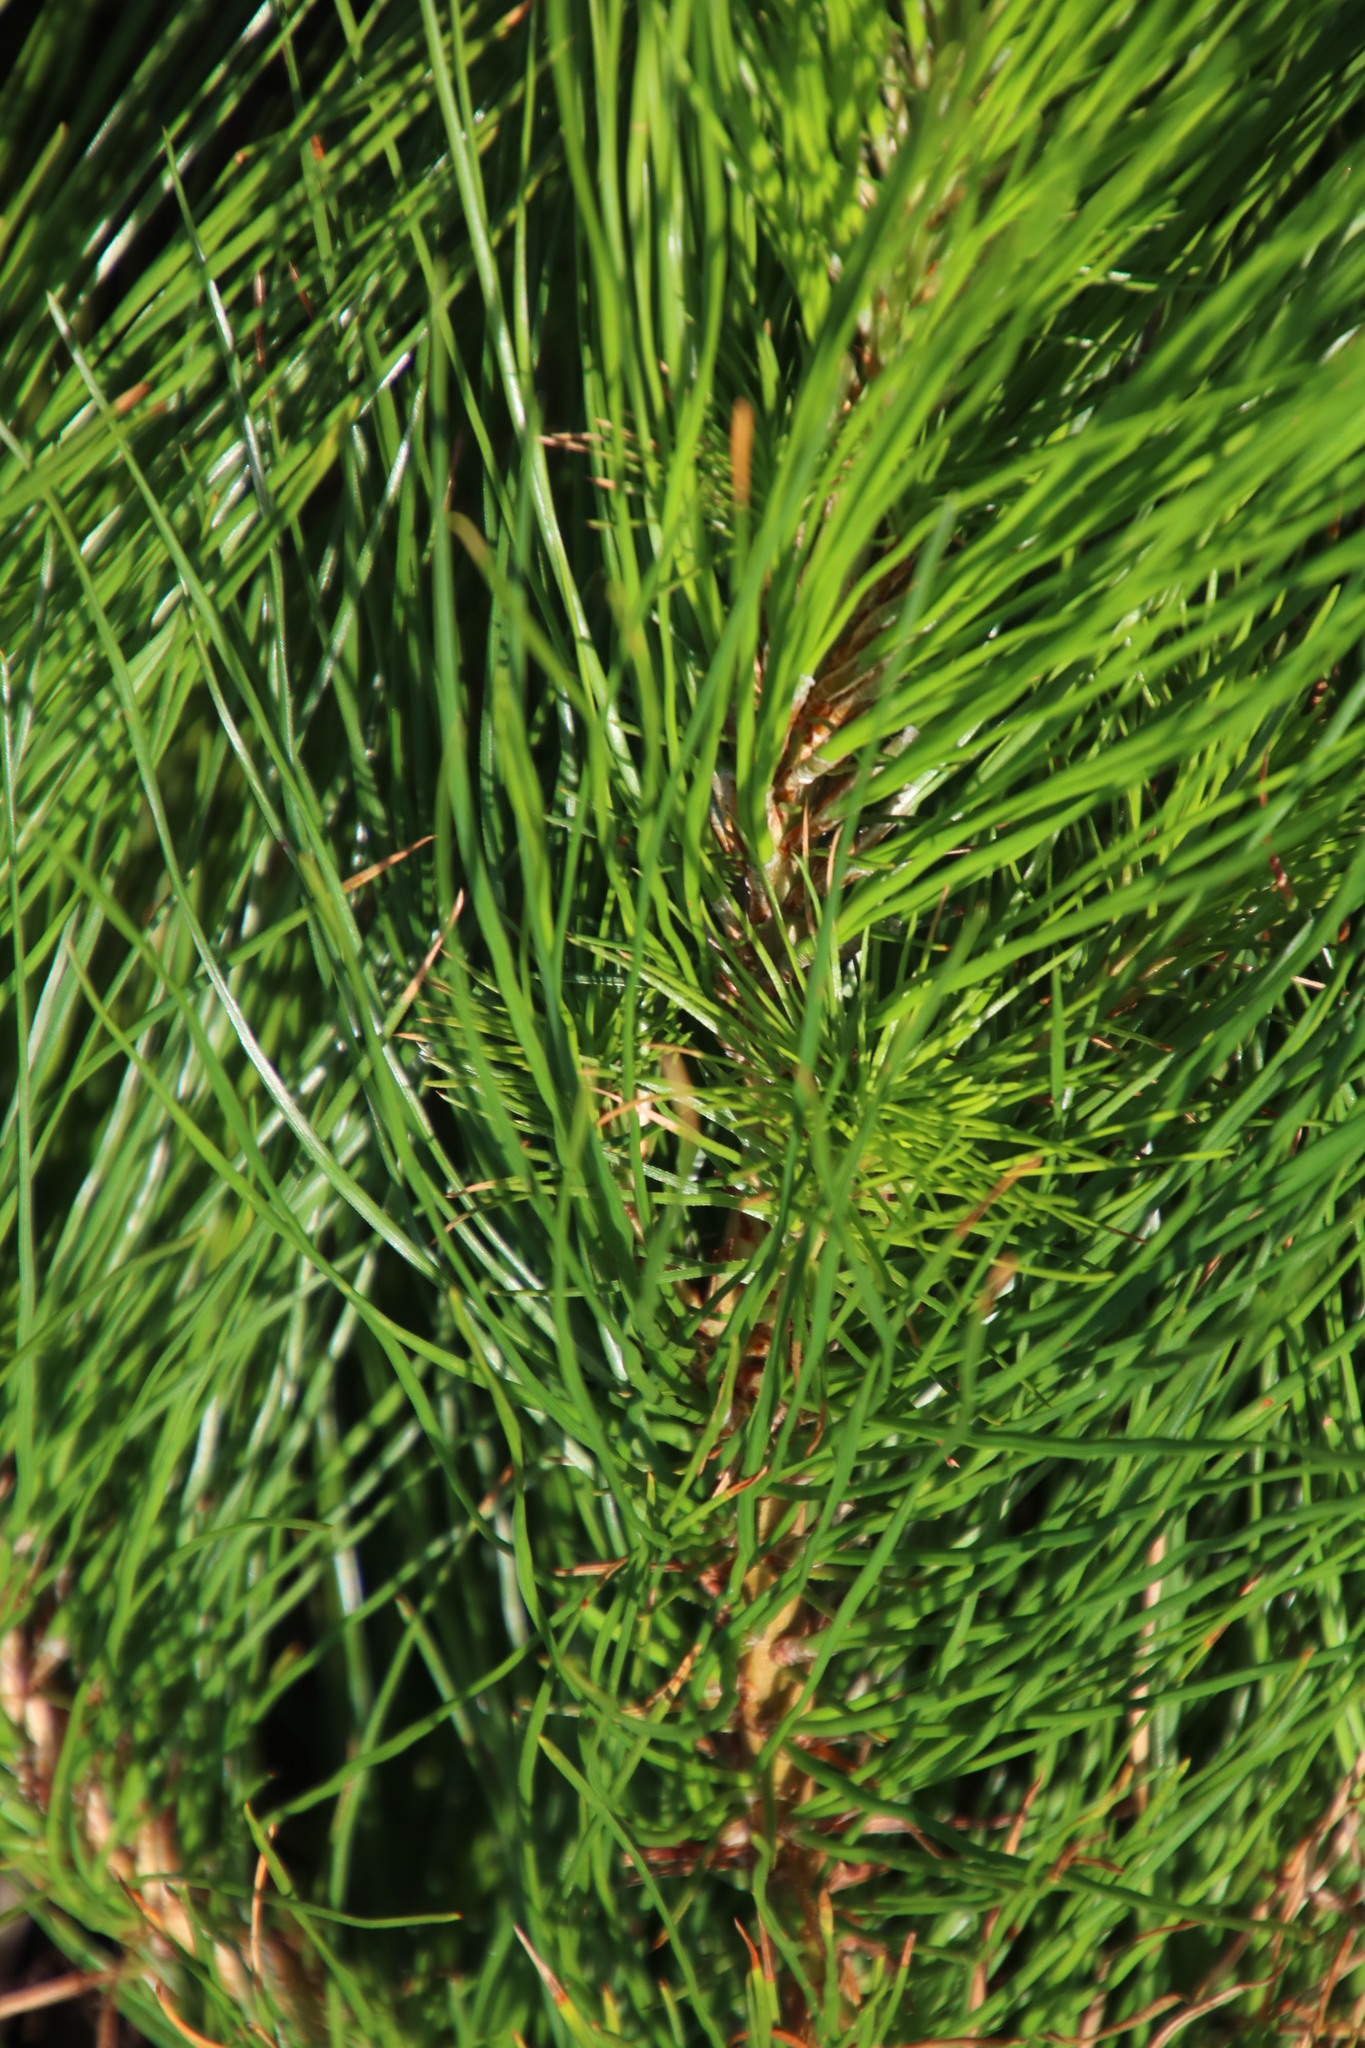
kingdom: Plantae
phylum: Tracheophyta
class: Pinopsida
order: Pinales
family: Pinaceae
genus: Pinus
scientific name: Pinus radiata
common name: Monterey pine
